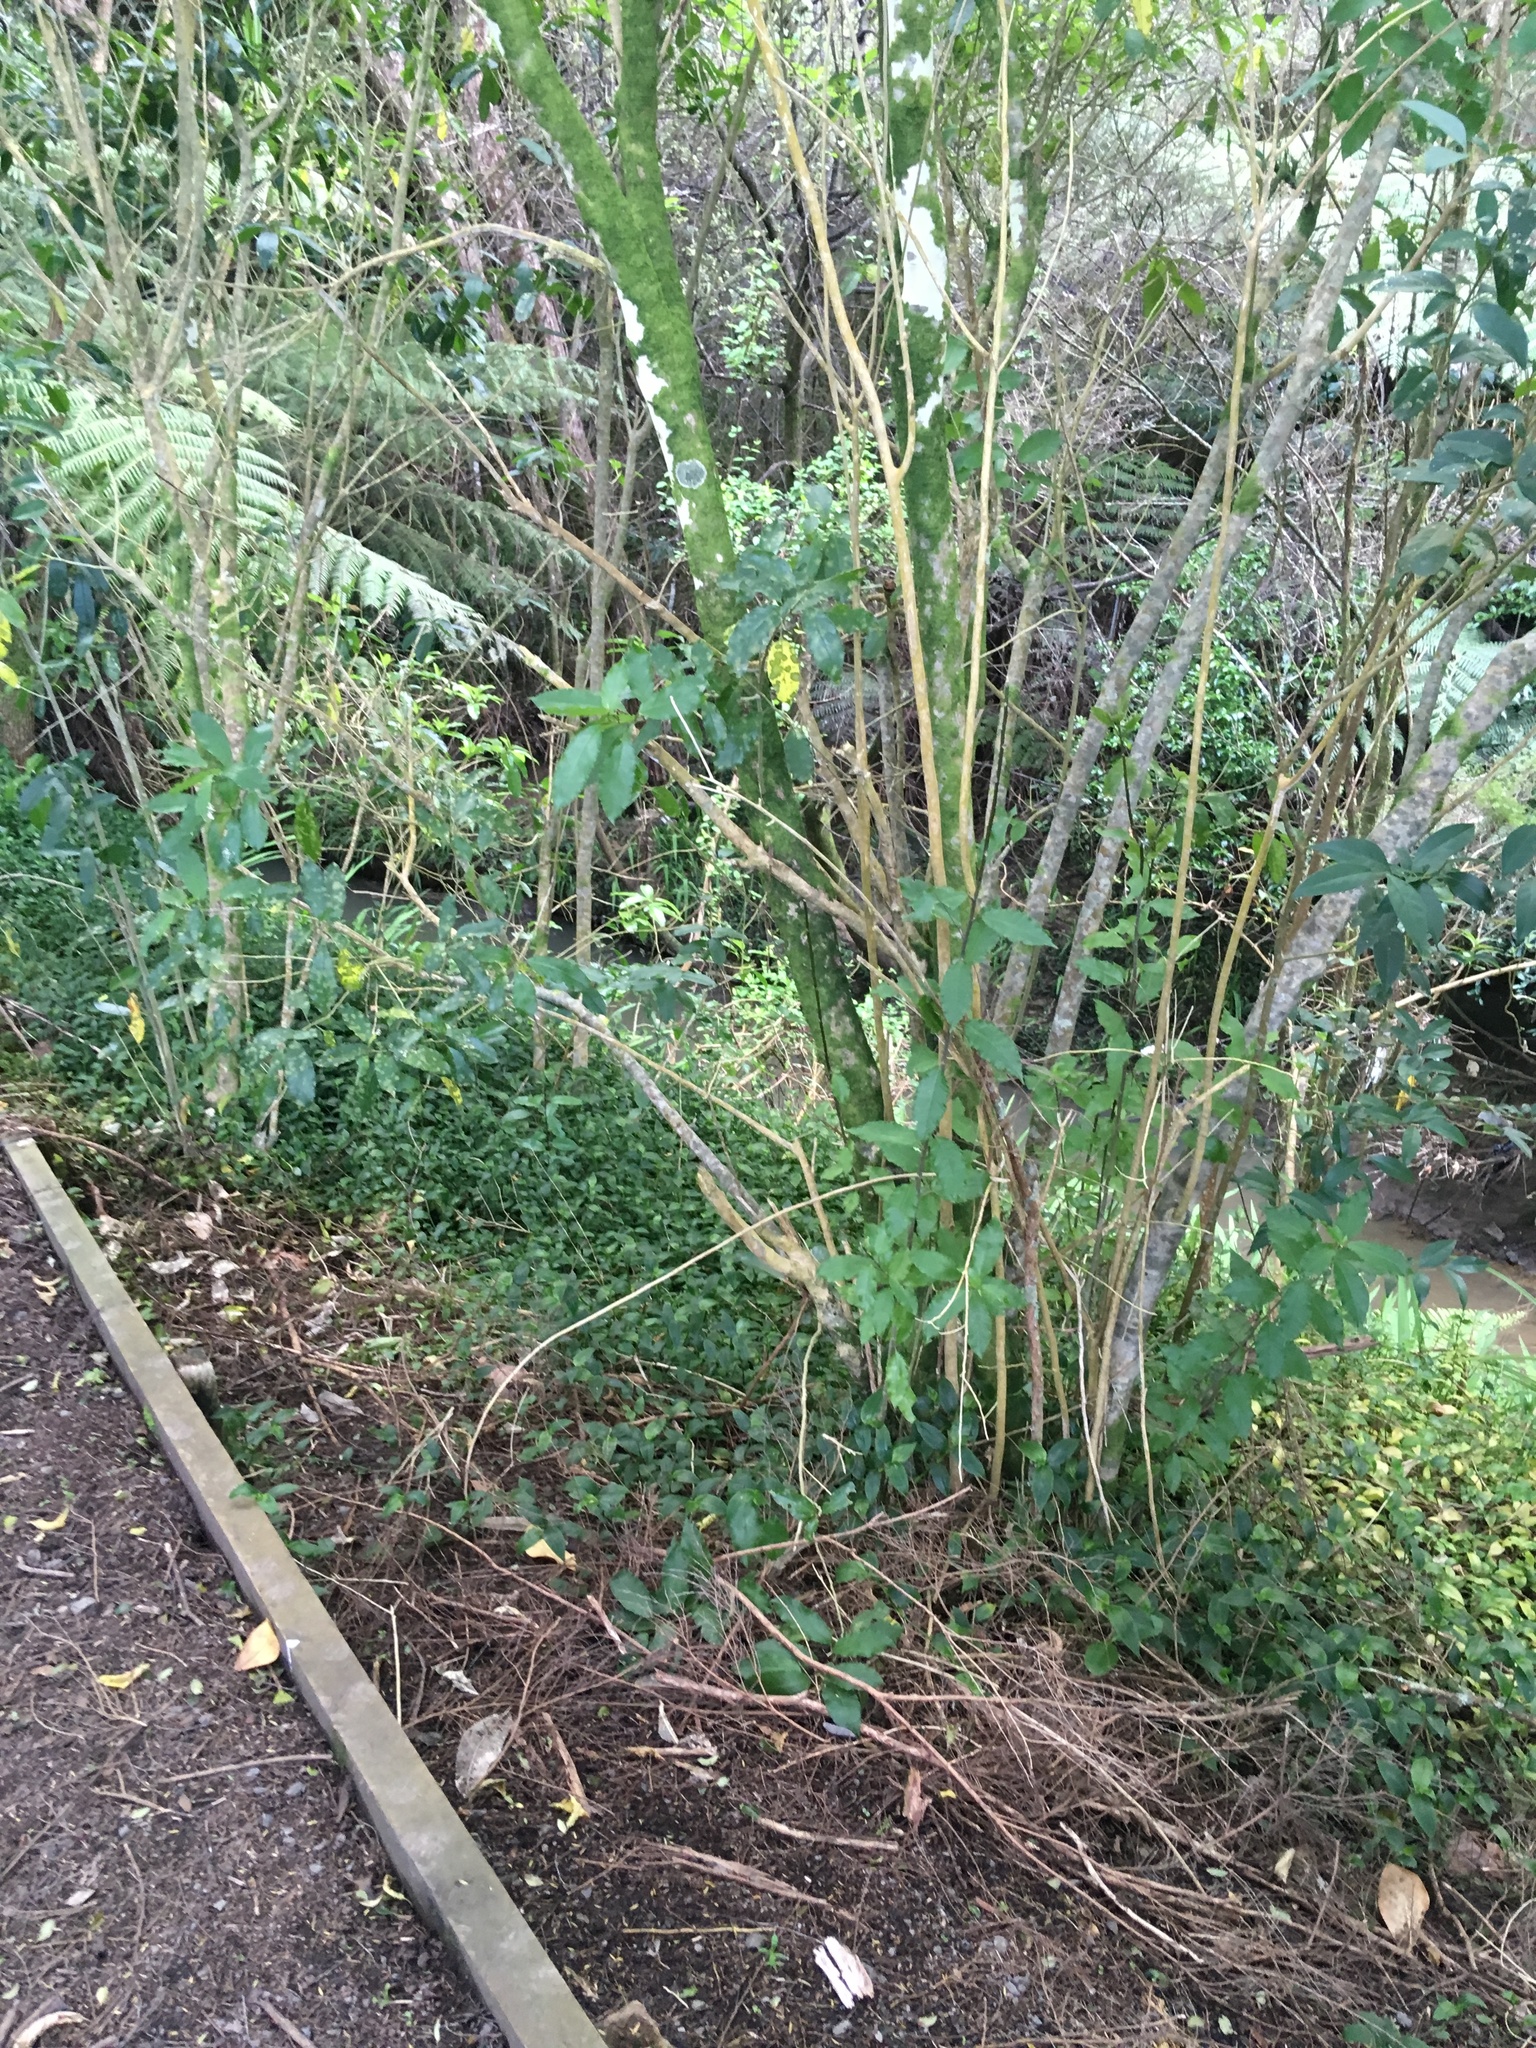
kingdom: Plantae
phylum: Tracheophyta
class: Magnoliopsida
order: Malpighiales
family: Violaceae
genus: Melicytus
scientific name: Melicytus ramiflorus
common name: Mahoe
